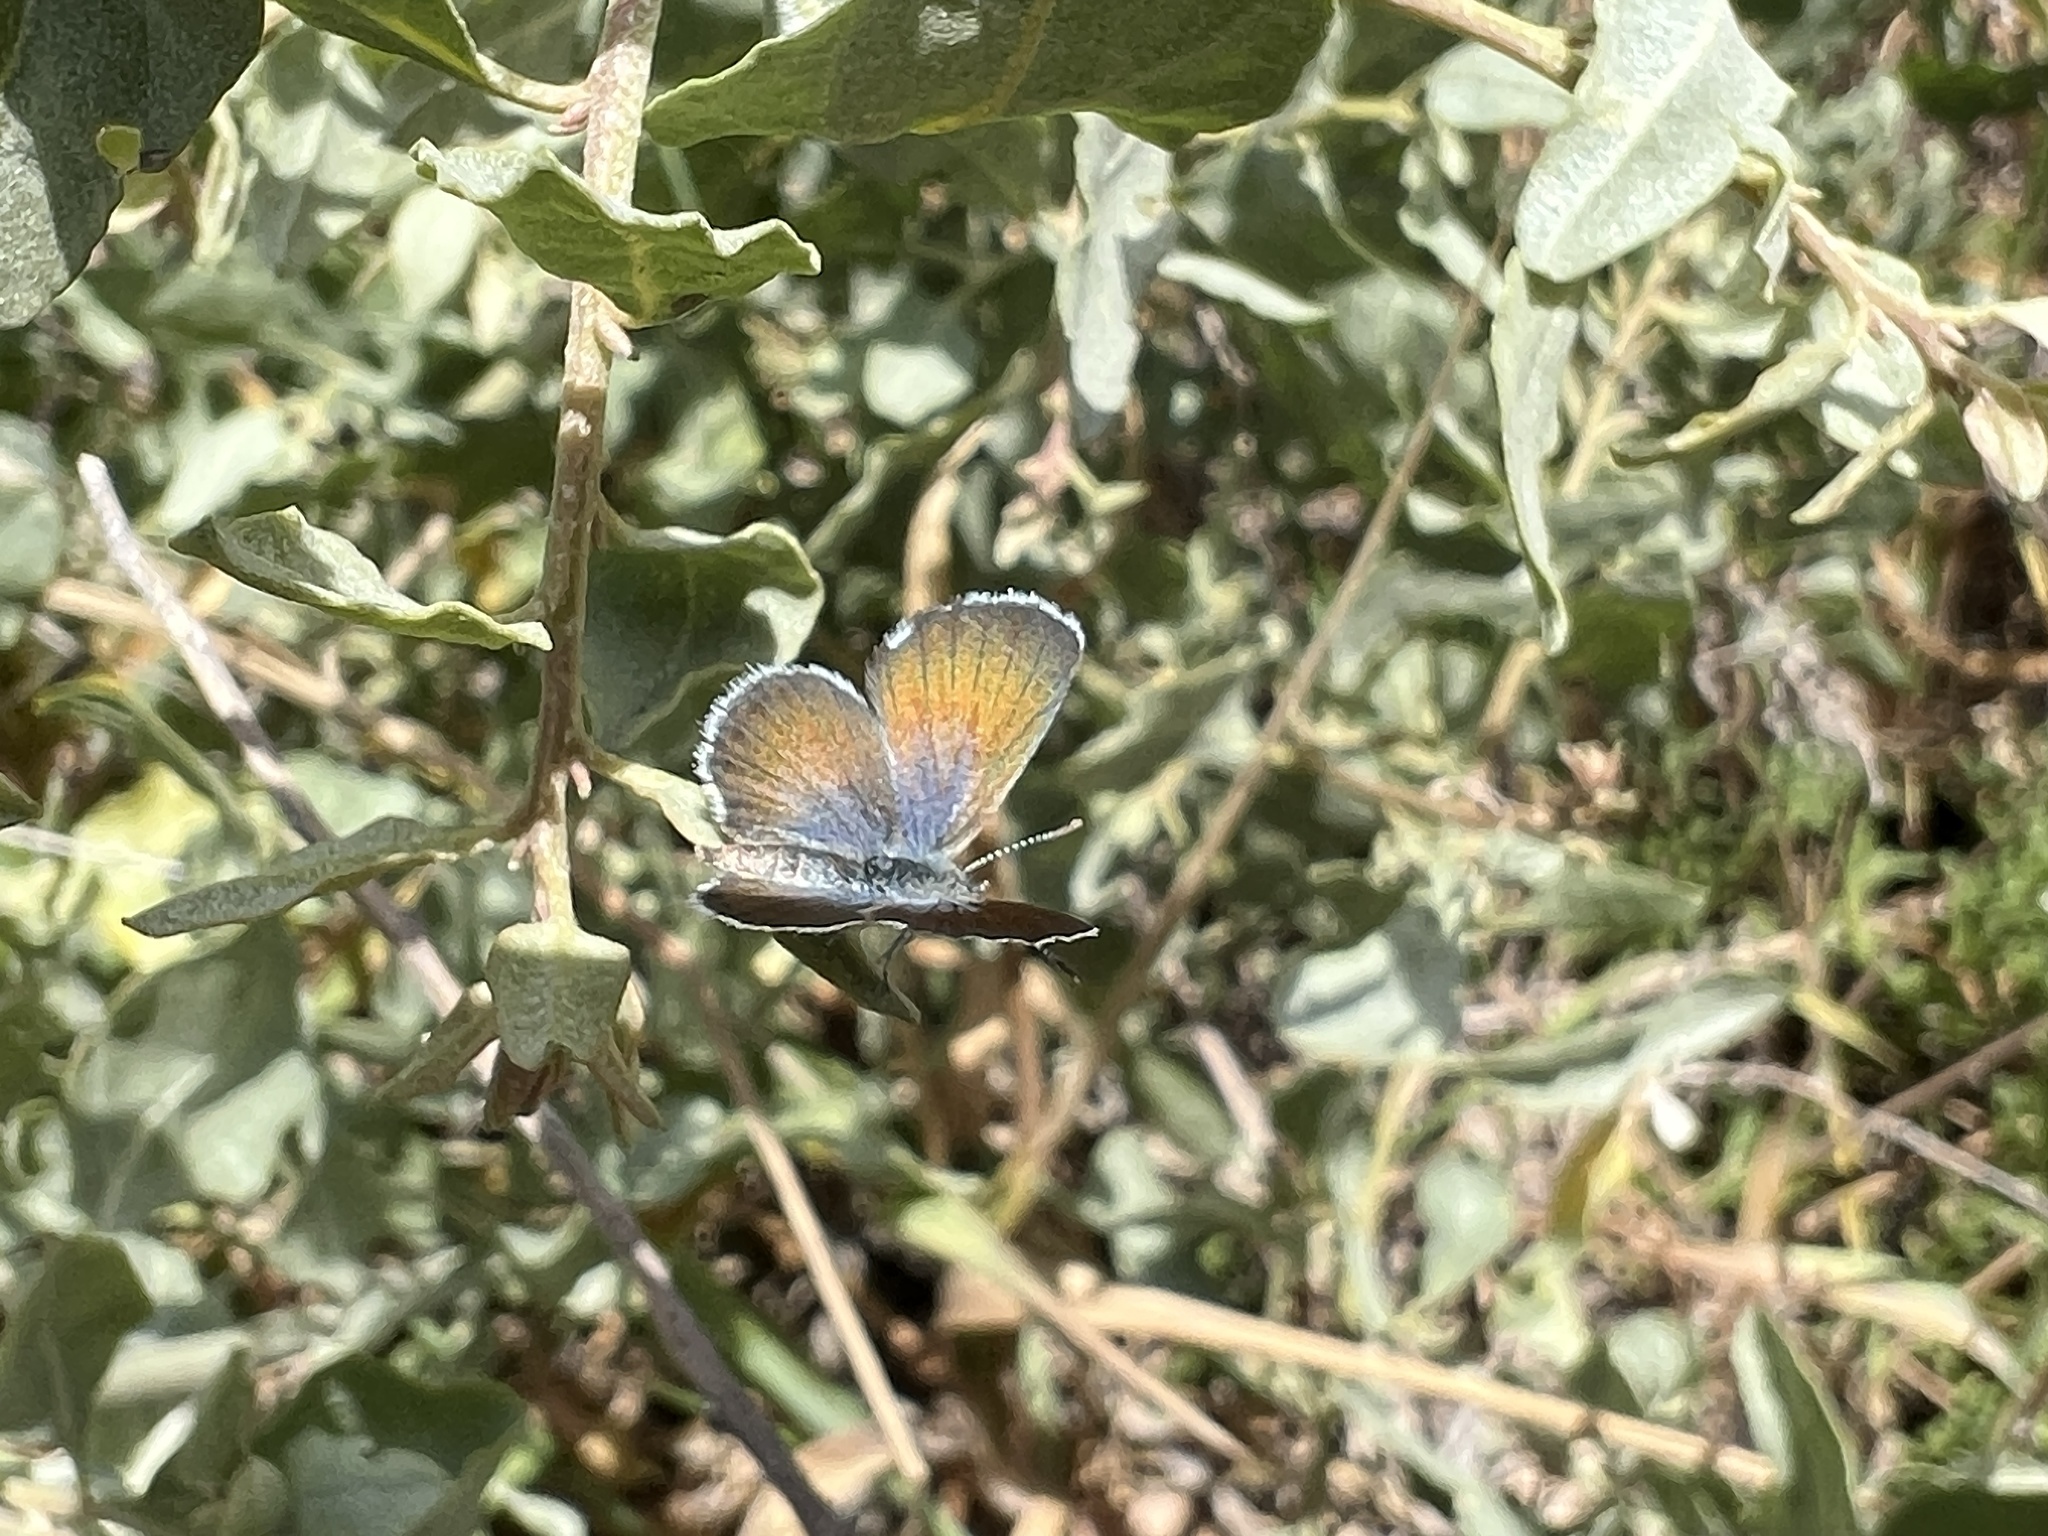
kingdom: Animalia
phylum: Arthropoda
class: Insecta
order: Lepidoptera
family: Lycaenidae
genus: Brephidium
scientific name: Brephidium exilis
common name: Pygmy blue
